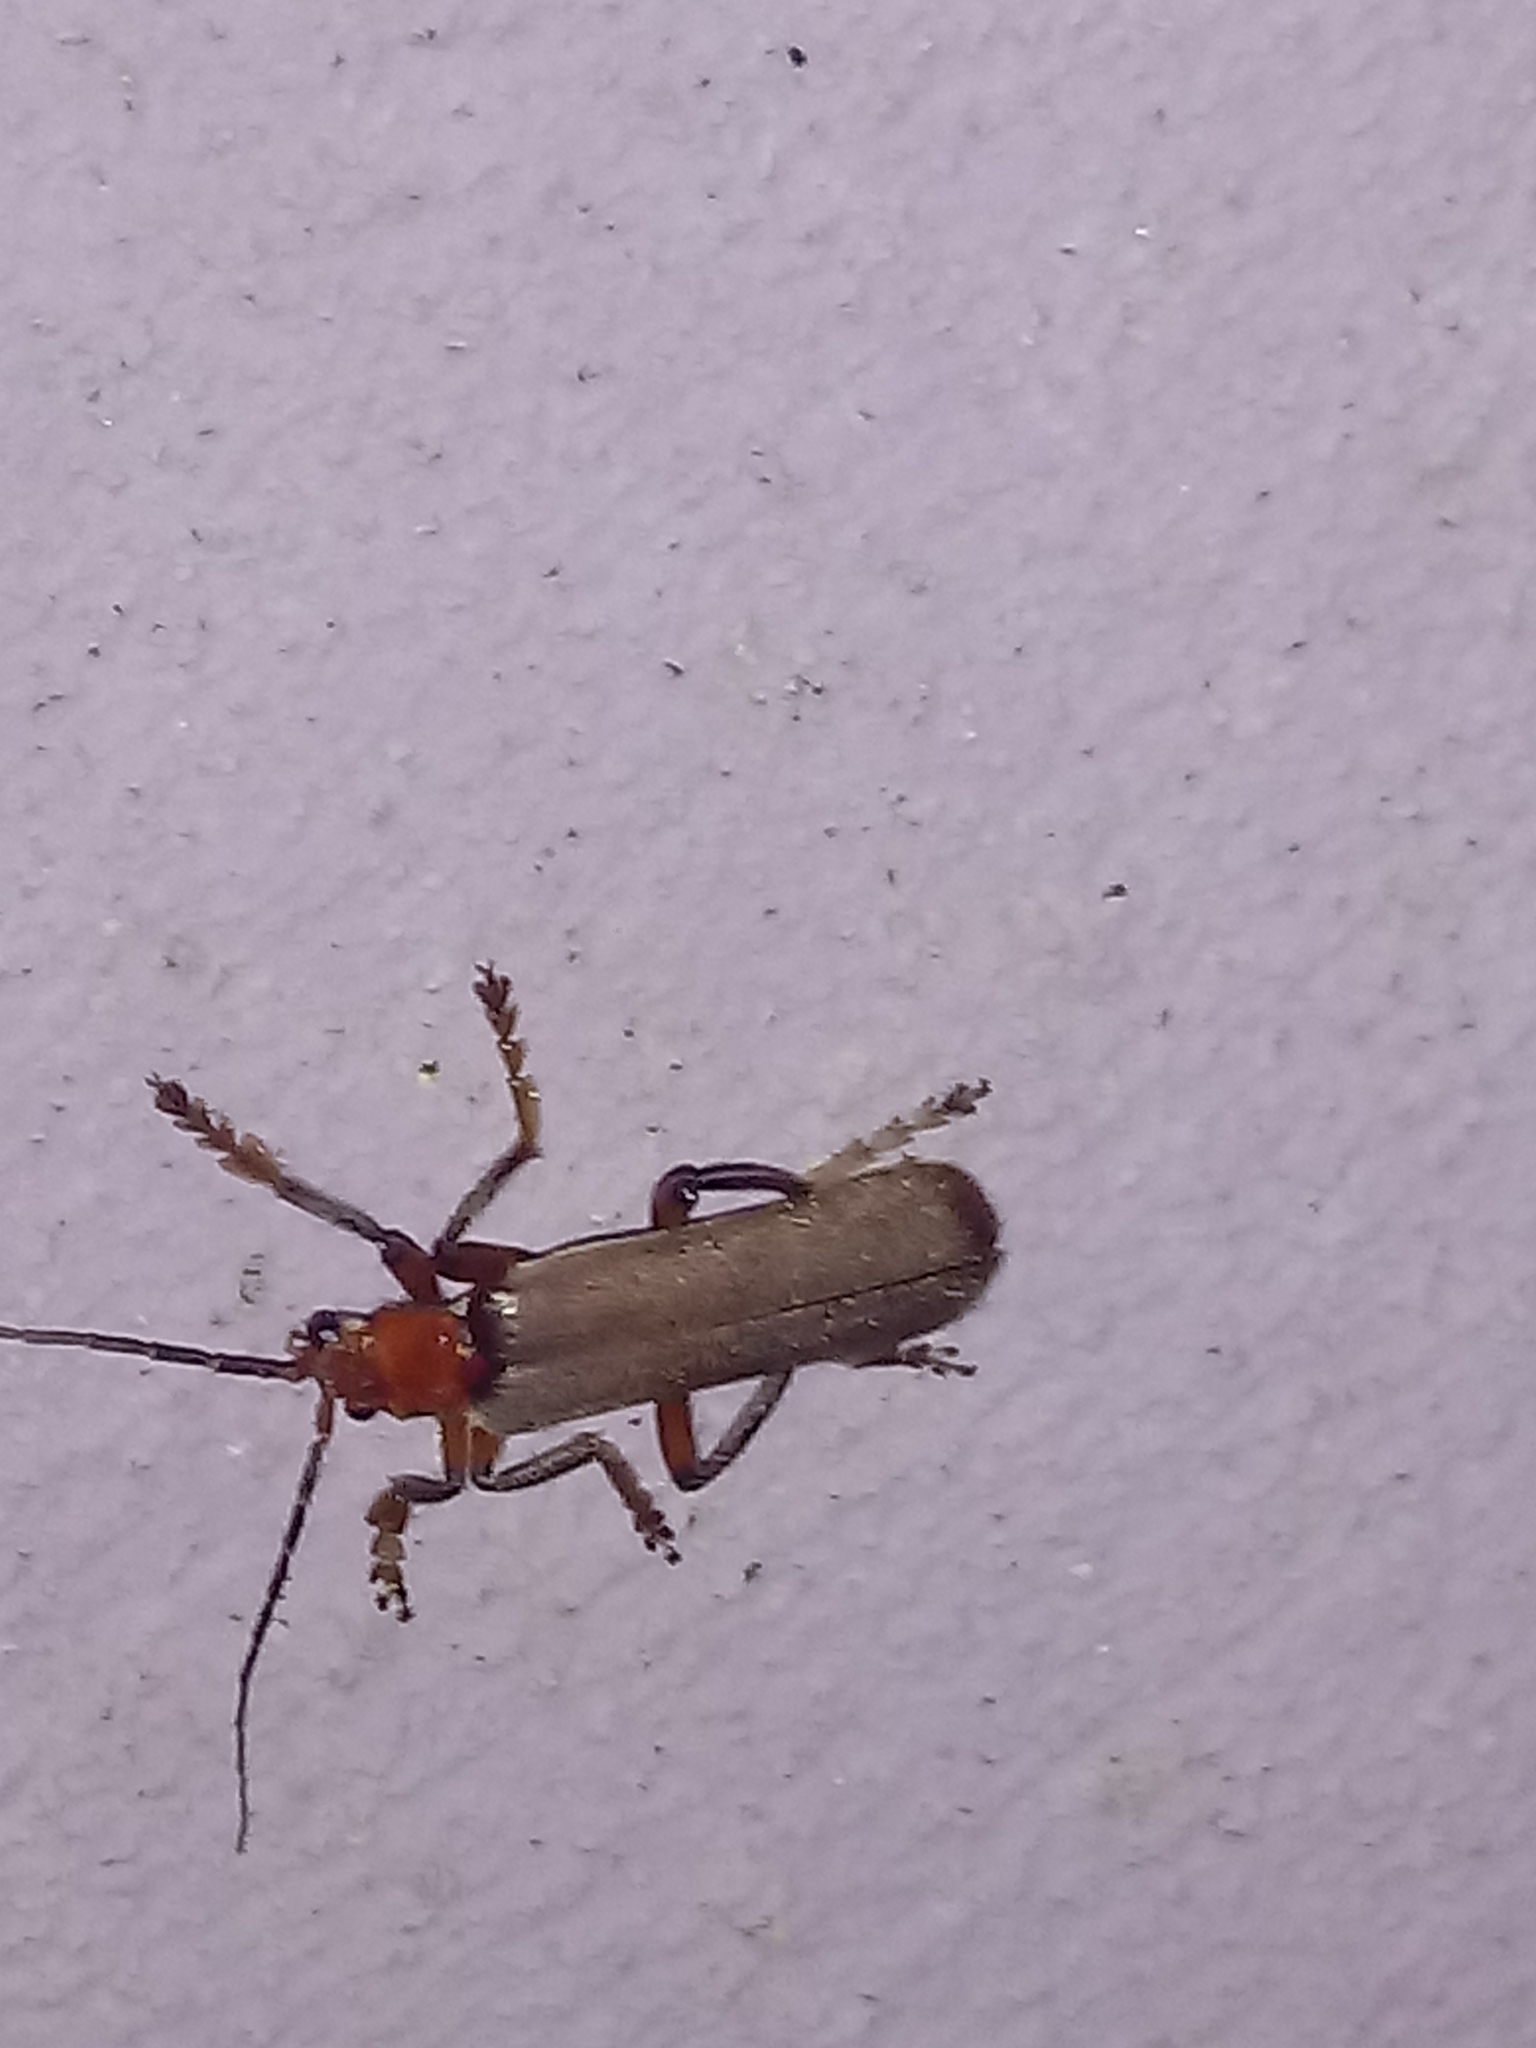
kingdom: Animalia
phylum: Arthropoda
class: Insecta
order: Coleoptera
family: Cantharidae
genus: Pacificanthia
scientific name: Pacificanthia consors
